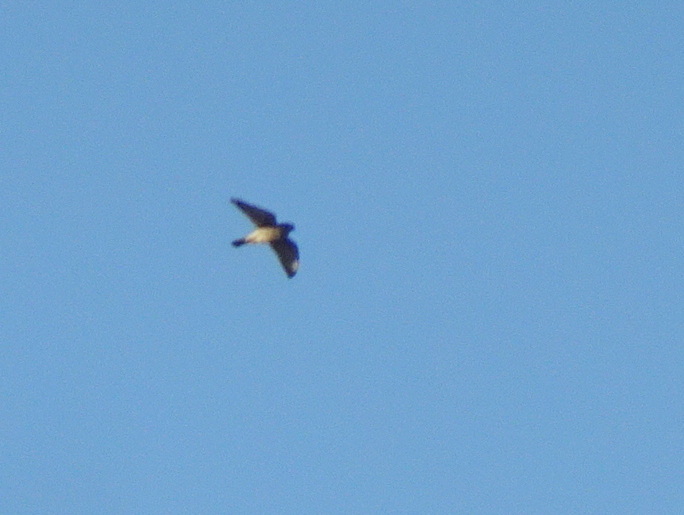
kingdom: Animalia
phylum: Chordata
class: Aves
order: Falconiformes
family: Falconidae
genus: Falco
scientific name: Falco sparverius
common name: American kestrel
